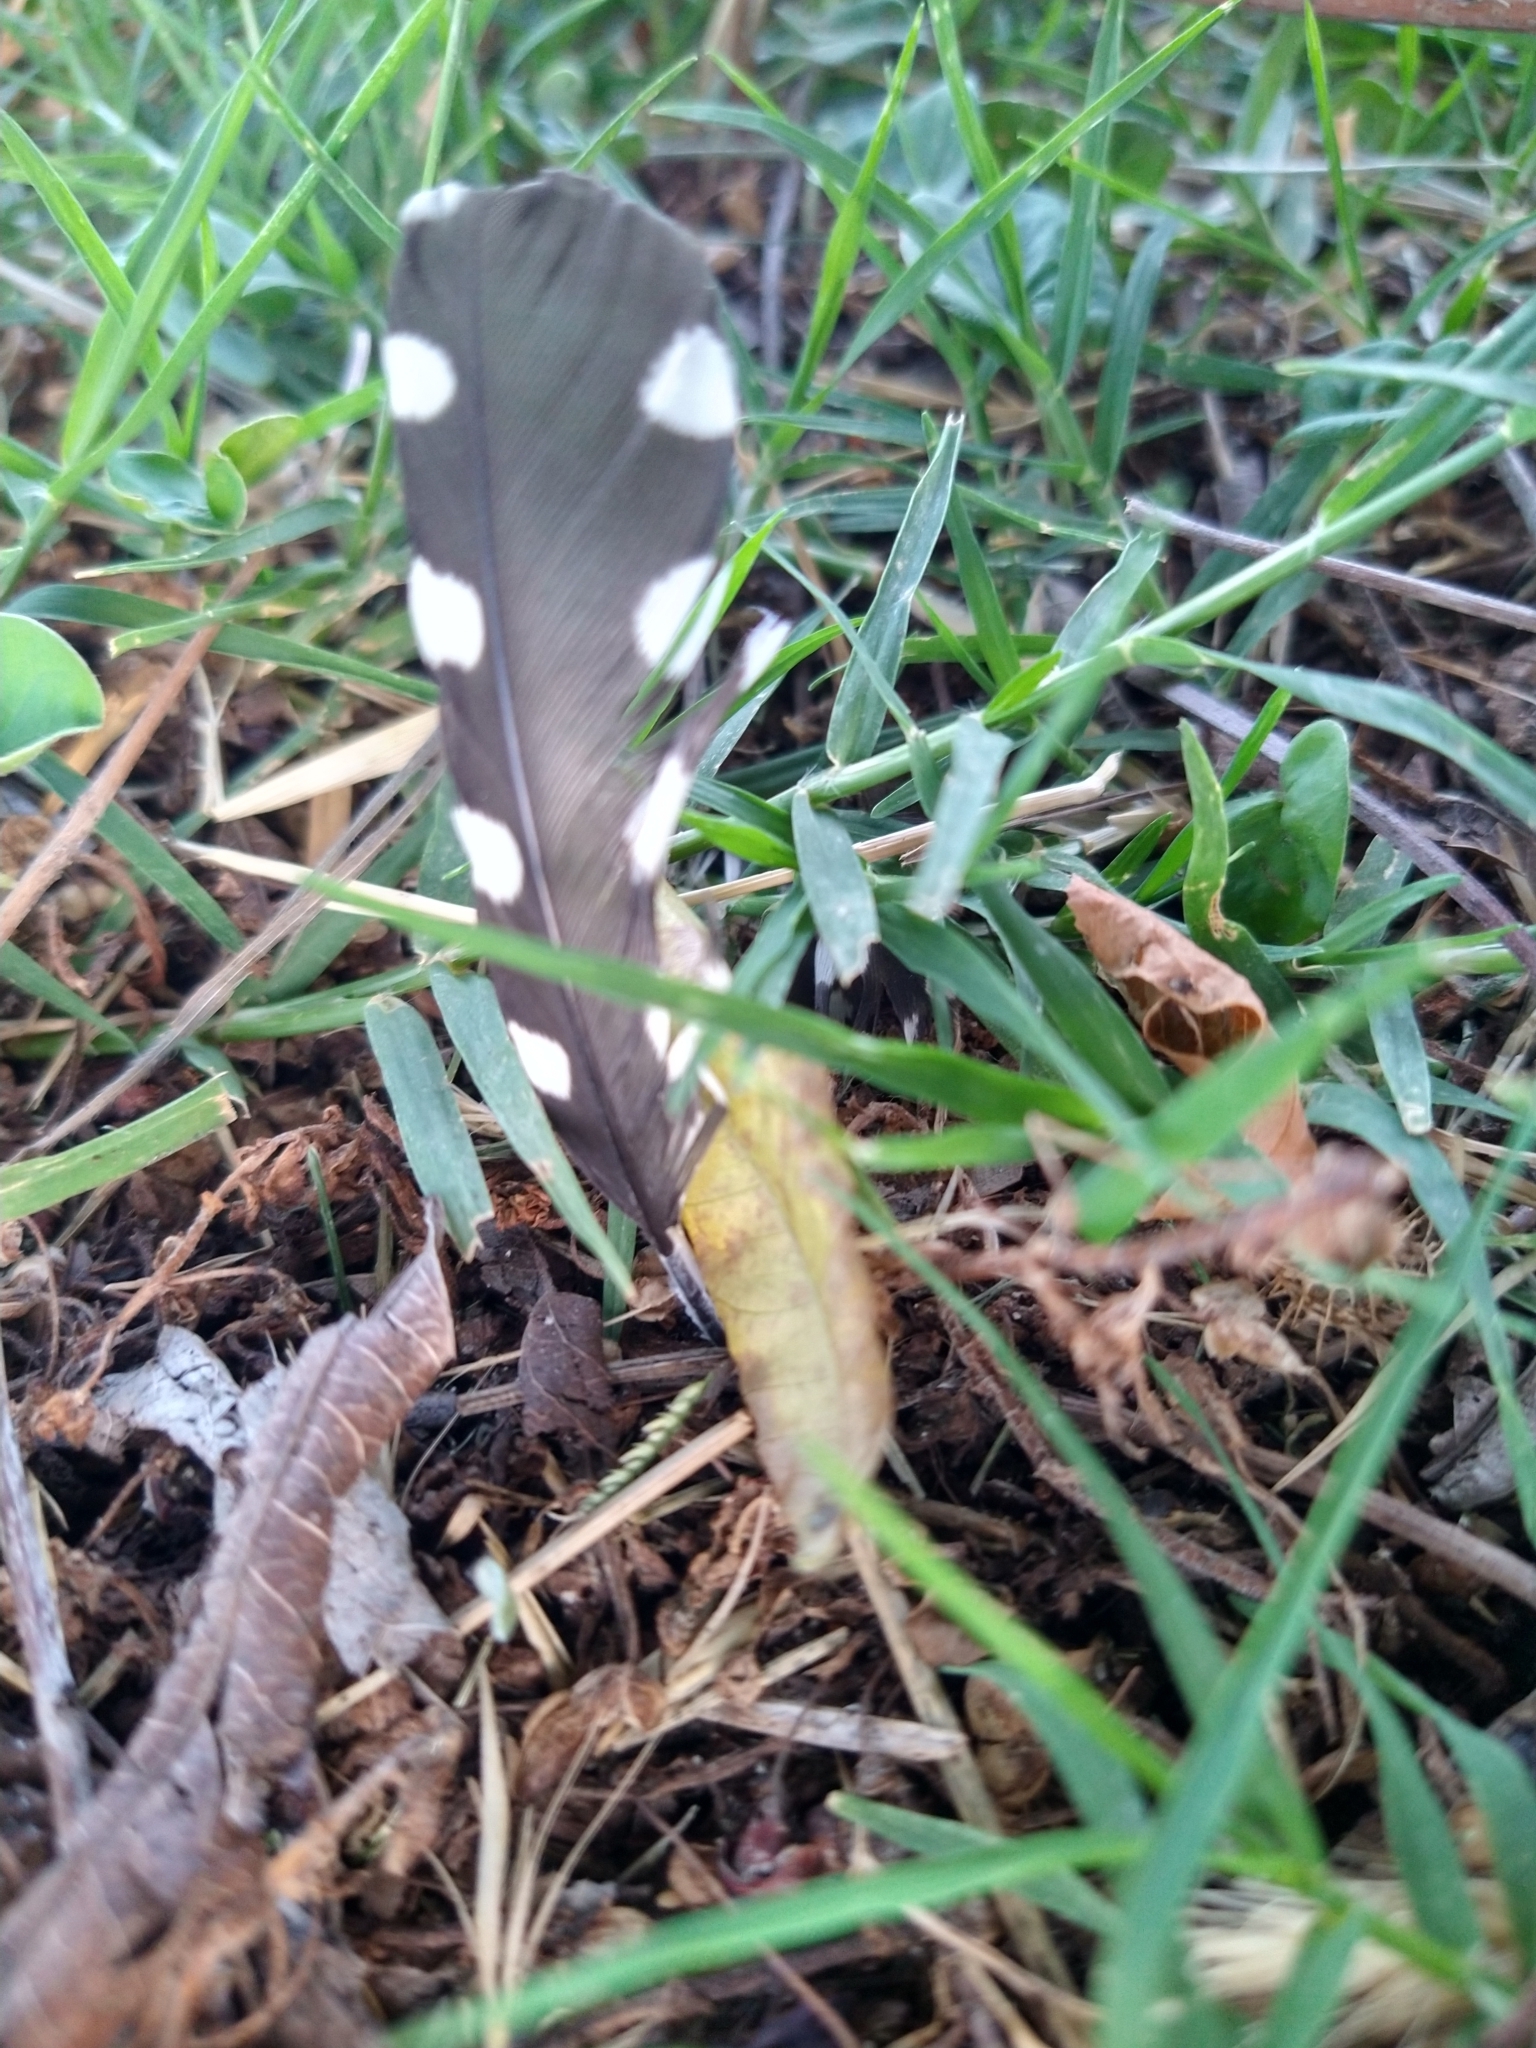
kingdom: Animalia
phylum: Chordata
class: Aves
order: Piciformes
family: Picidae
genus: Dryobates
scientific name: Dryobates nuttallii
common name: Nuttall's woodpecker
